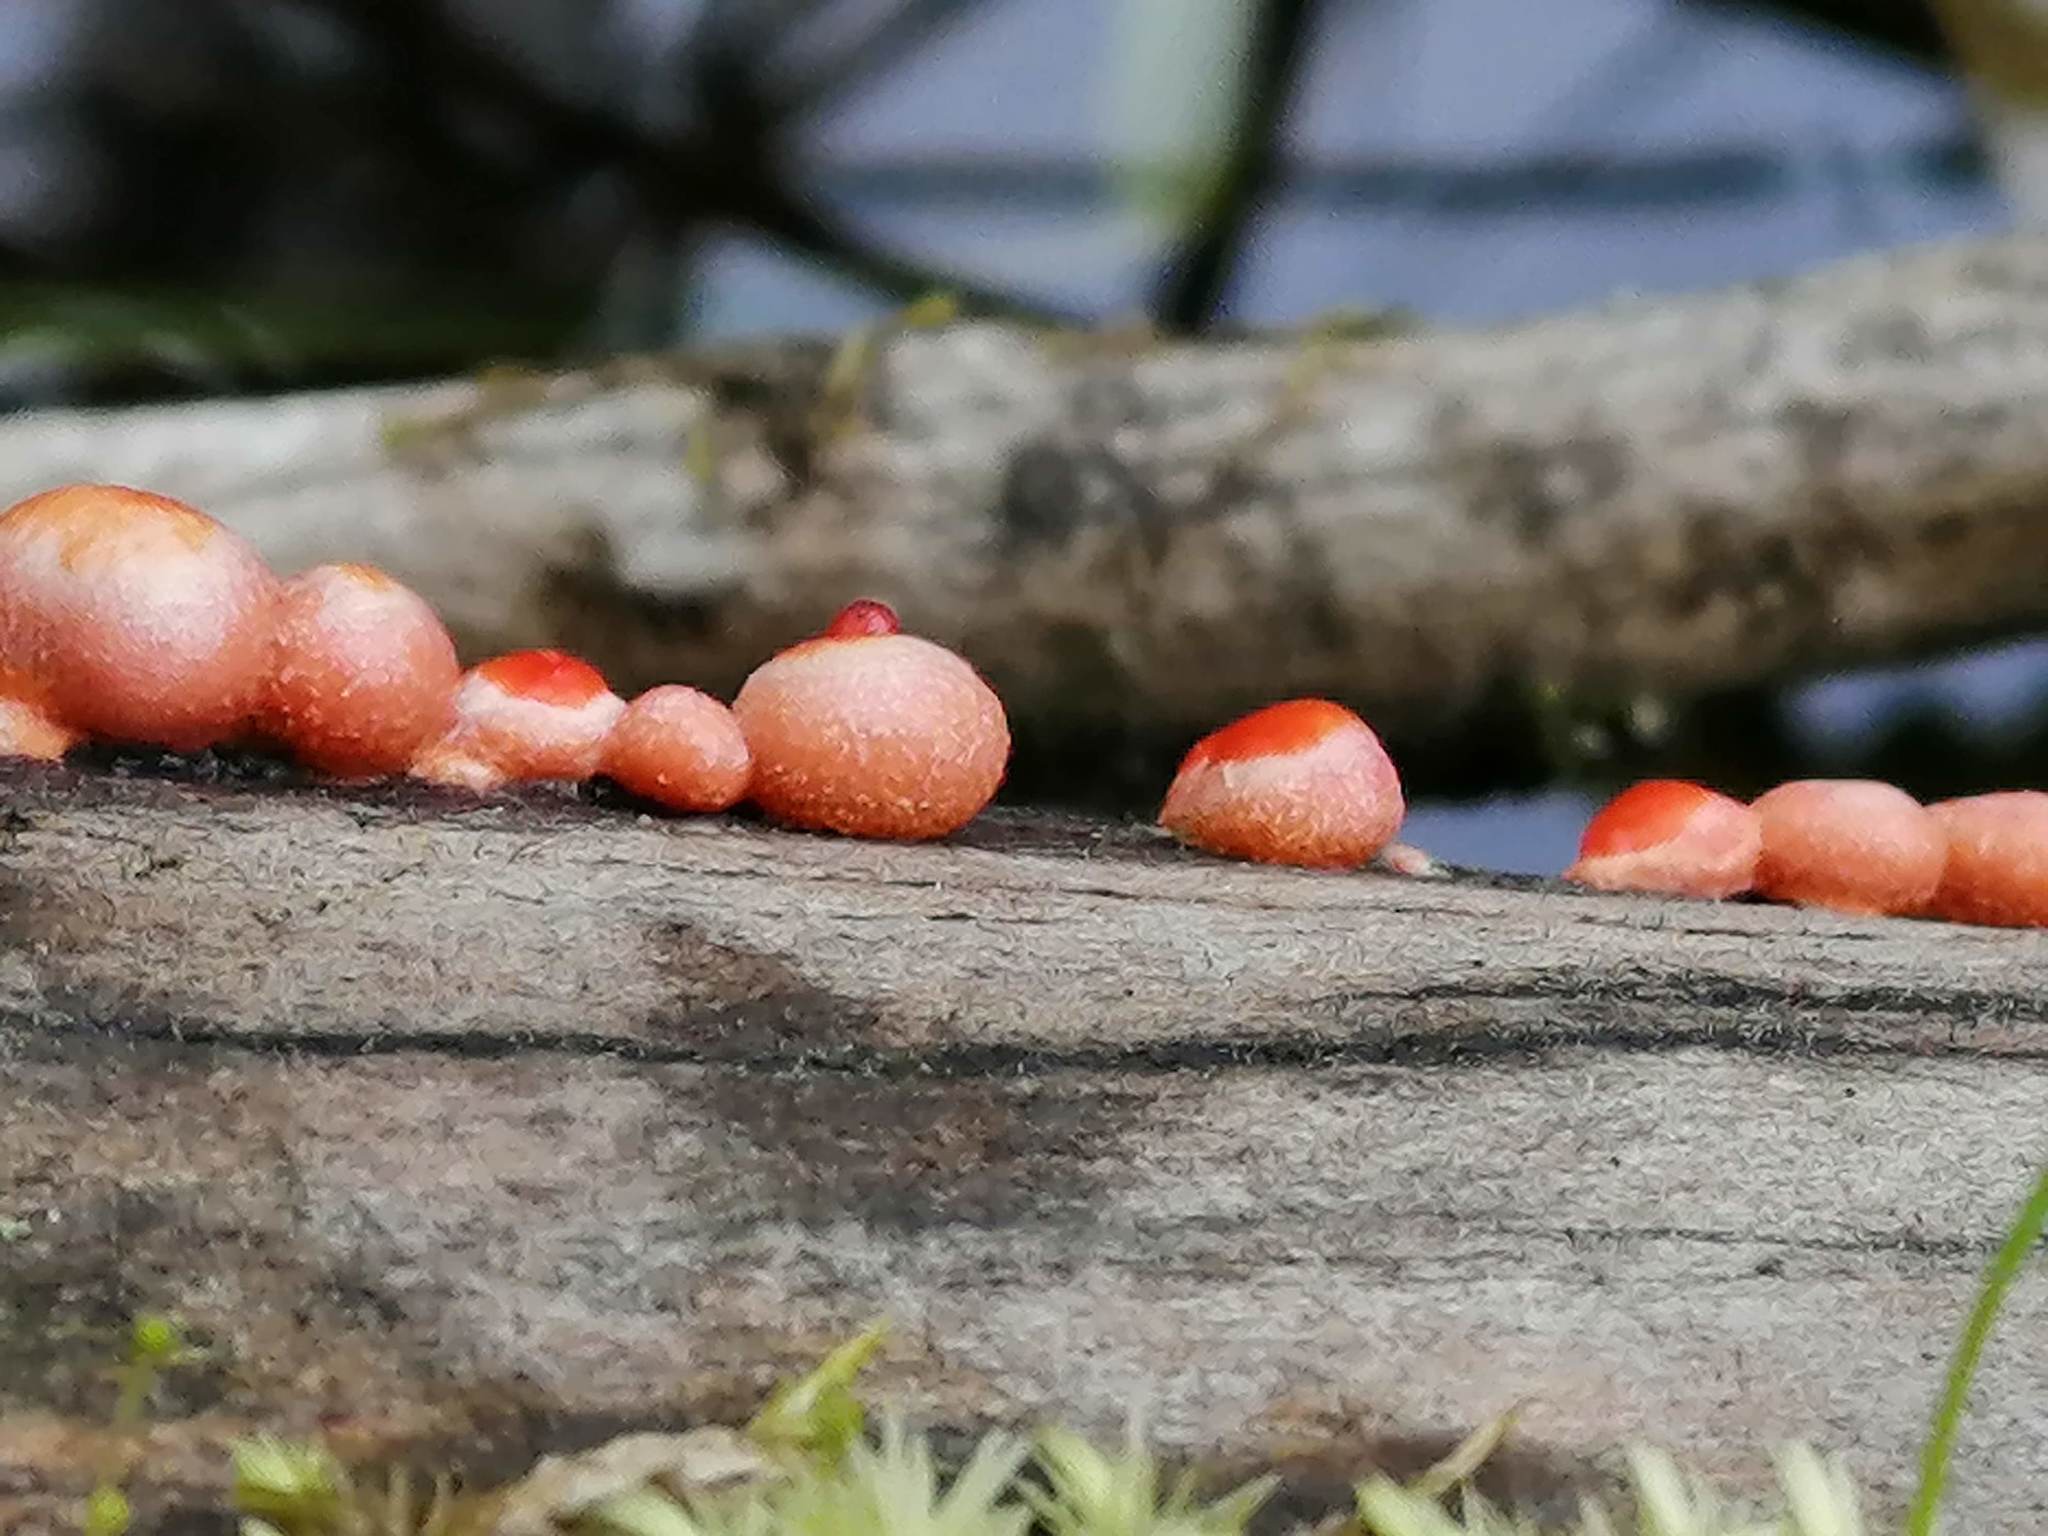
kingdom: Protozoa
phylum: Mycetozoa
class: Myxomycetes
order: Cribrariales
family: Tubiferaceae
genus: Lycogala
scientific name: Lycogala epidendrum
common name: Wolf's milk
